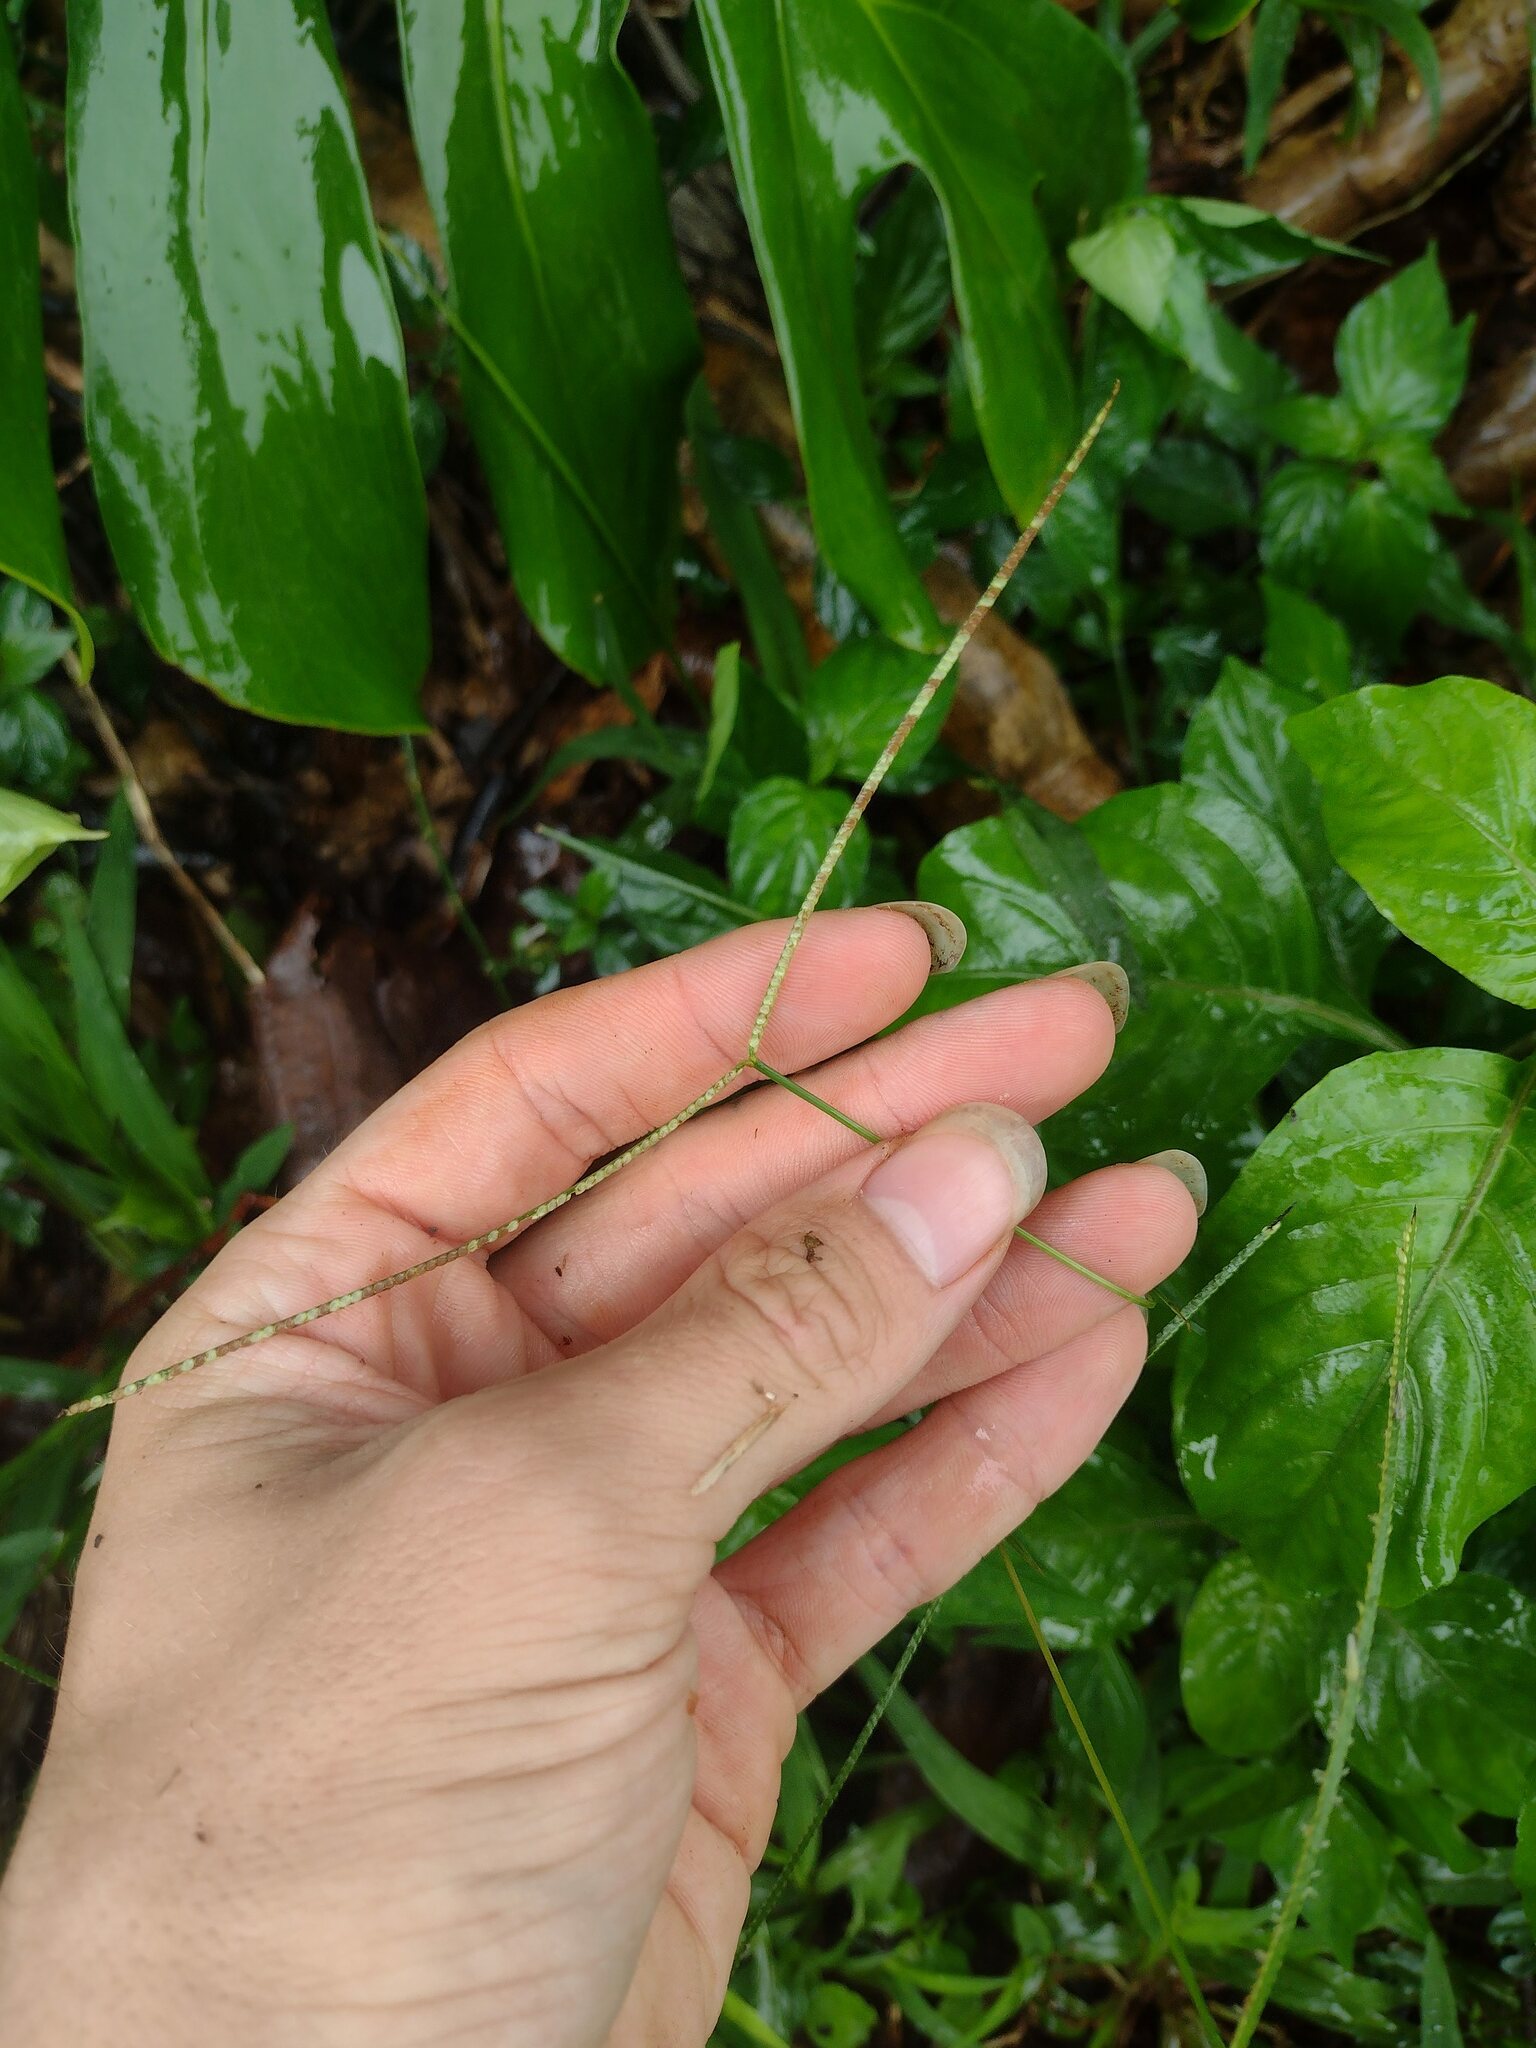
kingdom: Plantae
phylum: Tracheophyta
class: Liliopsida
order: Poales
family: Poaceae
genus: Paspalum
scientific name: Paspalum conjugatum
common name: Hilograss
